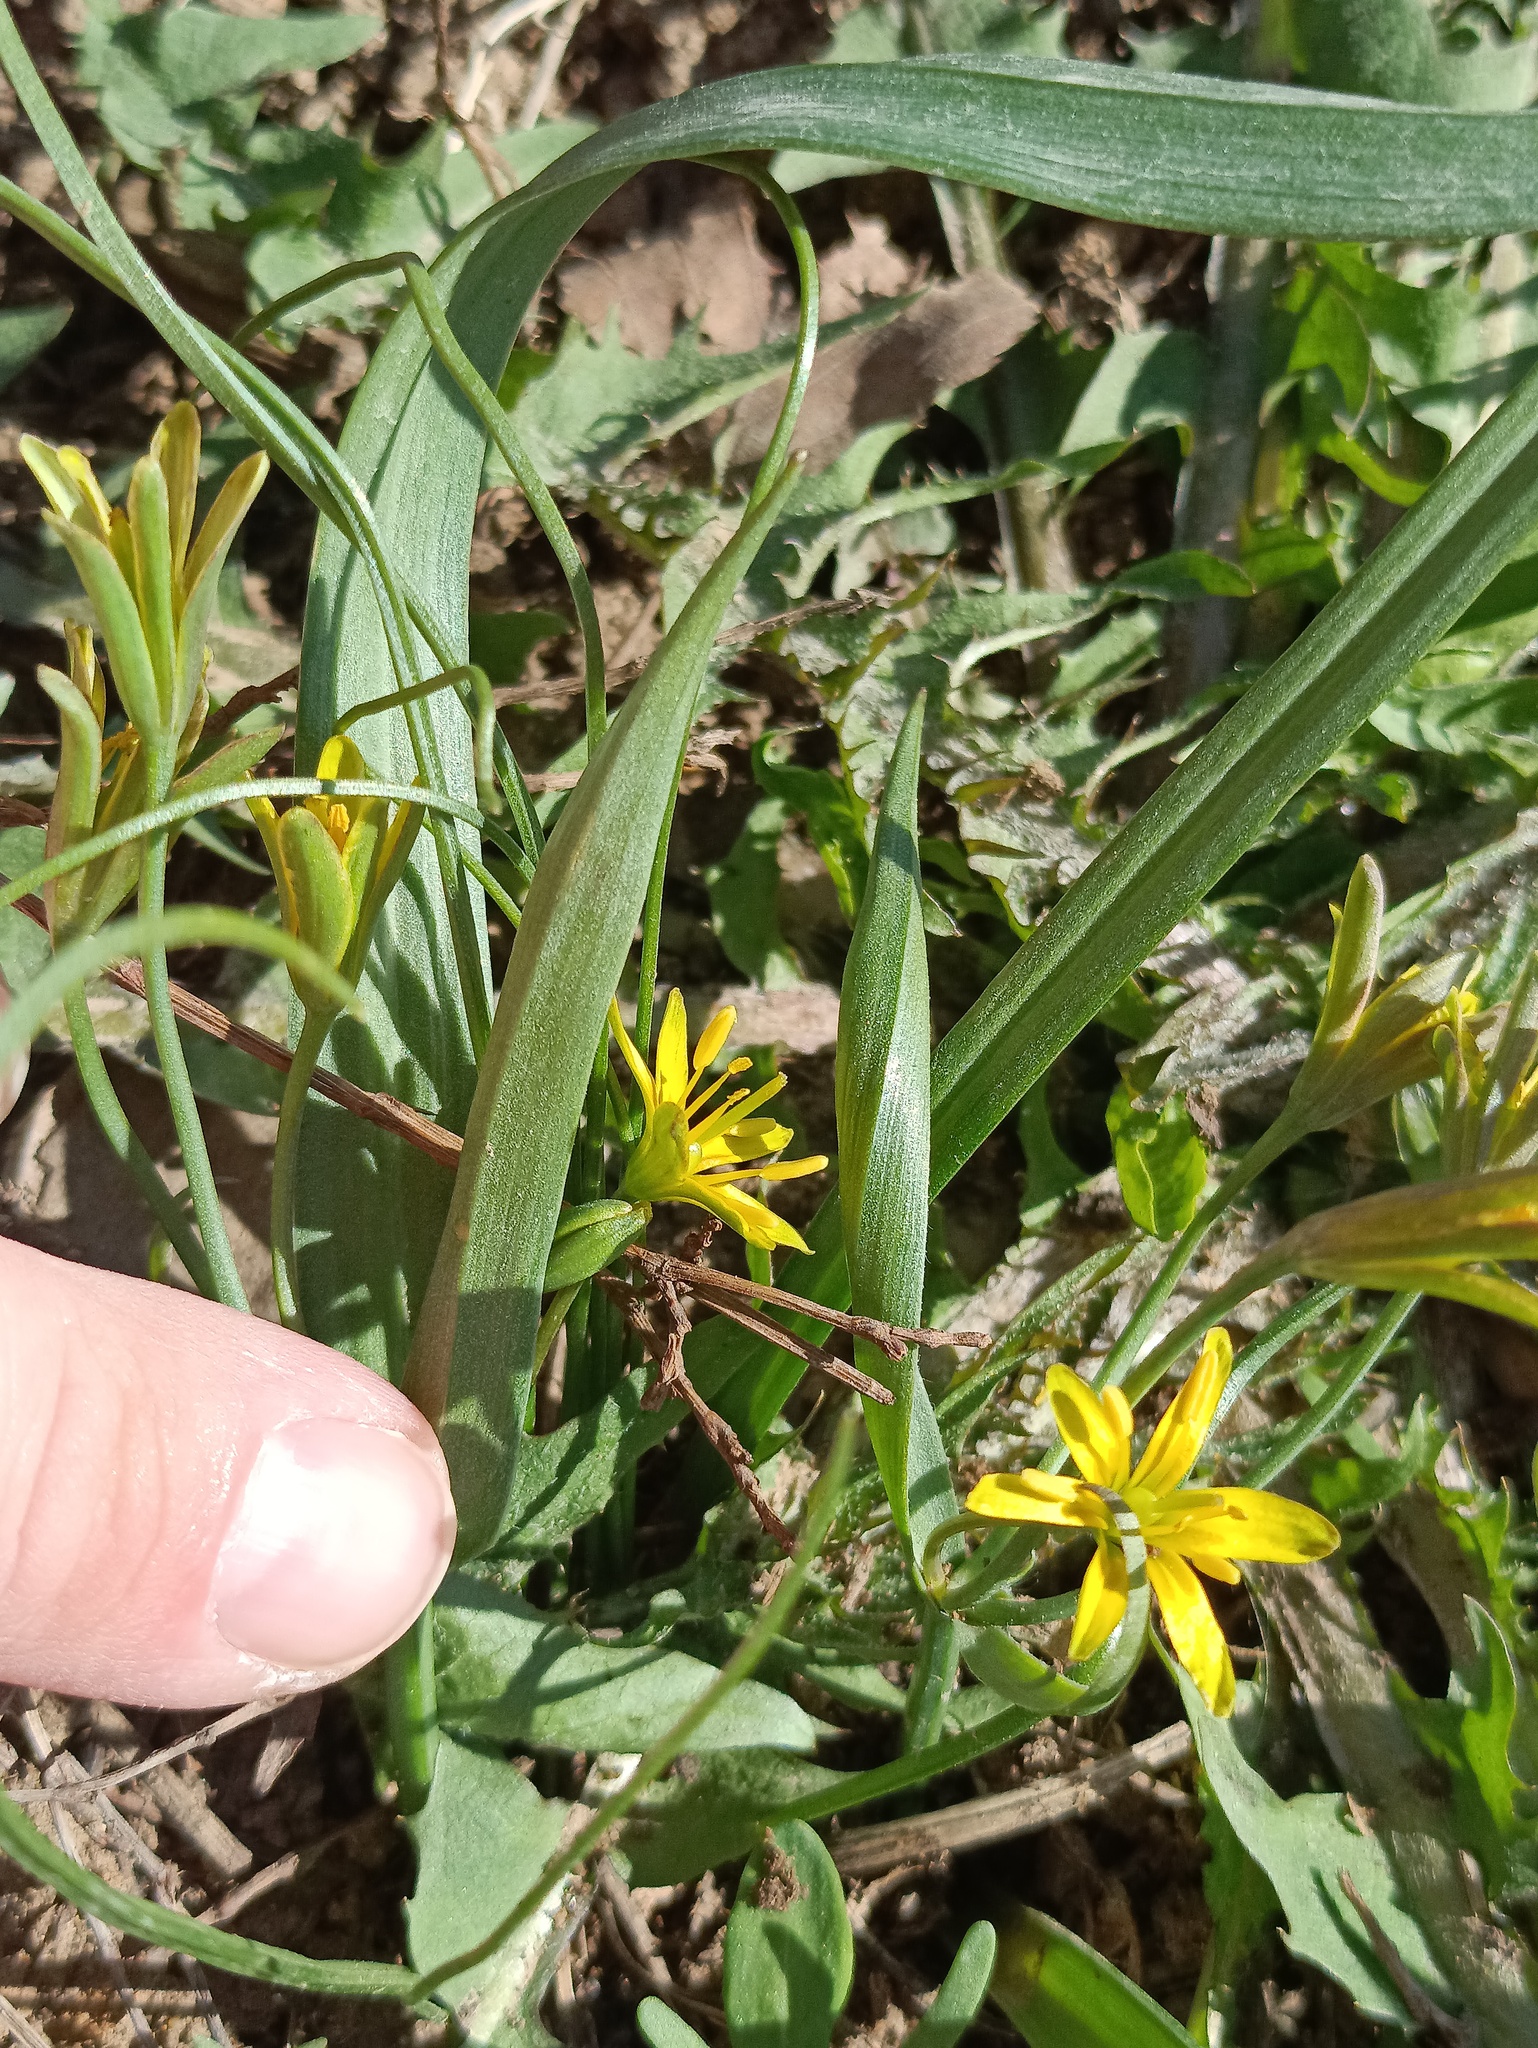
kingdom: Plantae
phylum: Tracheophyta
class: Liliopsida
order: Liliales
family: Liliaceae
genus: Gagea
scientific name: Gagea lutea
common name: Yellow star-of-bethlehem
